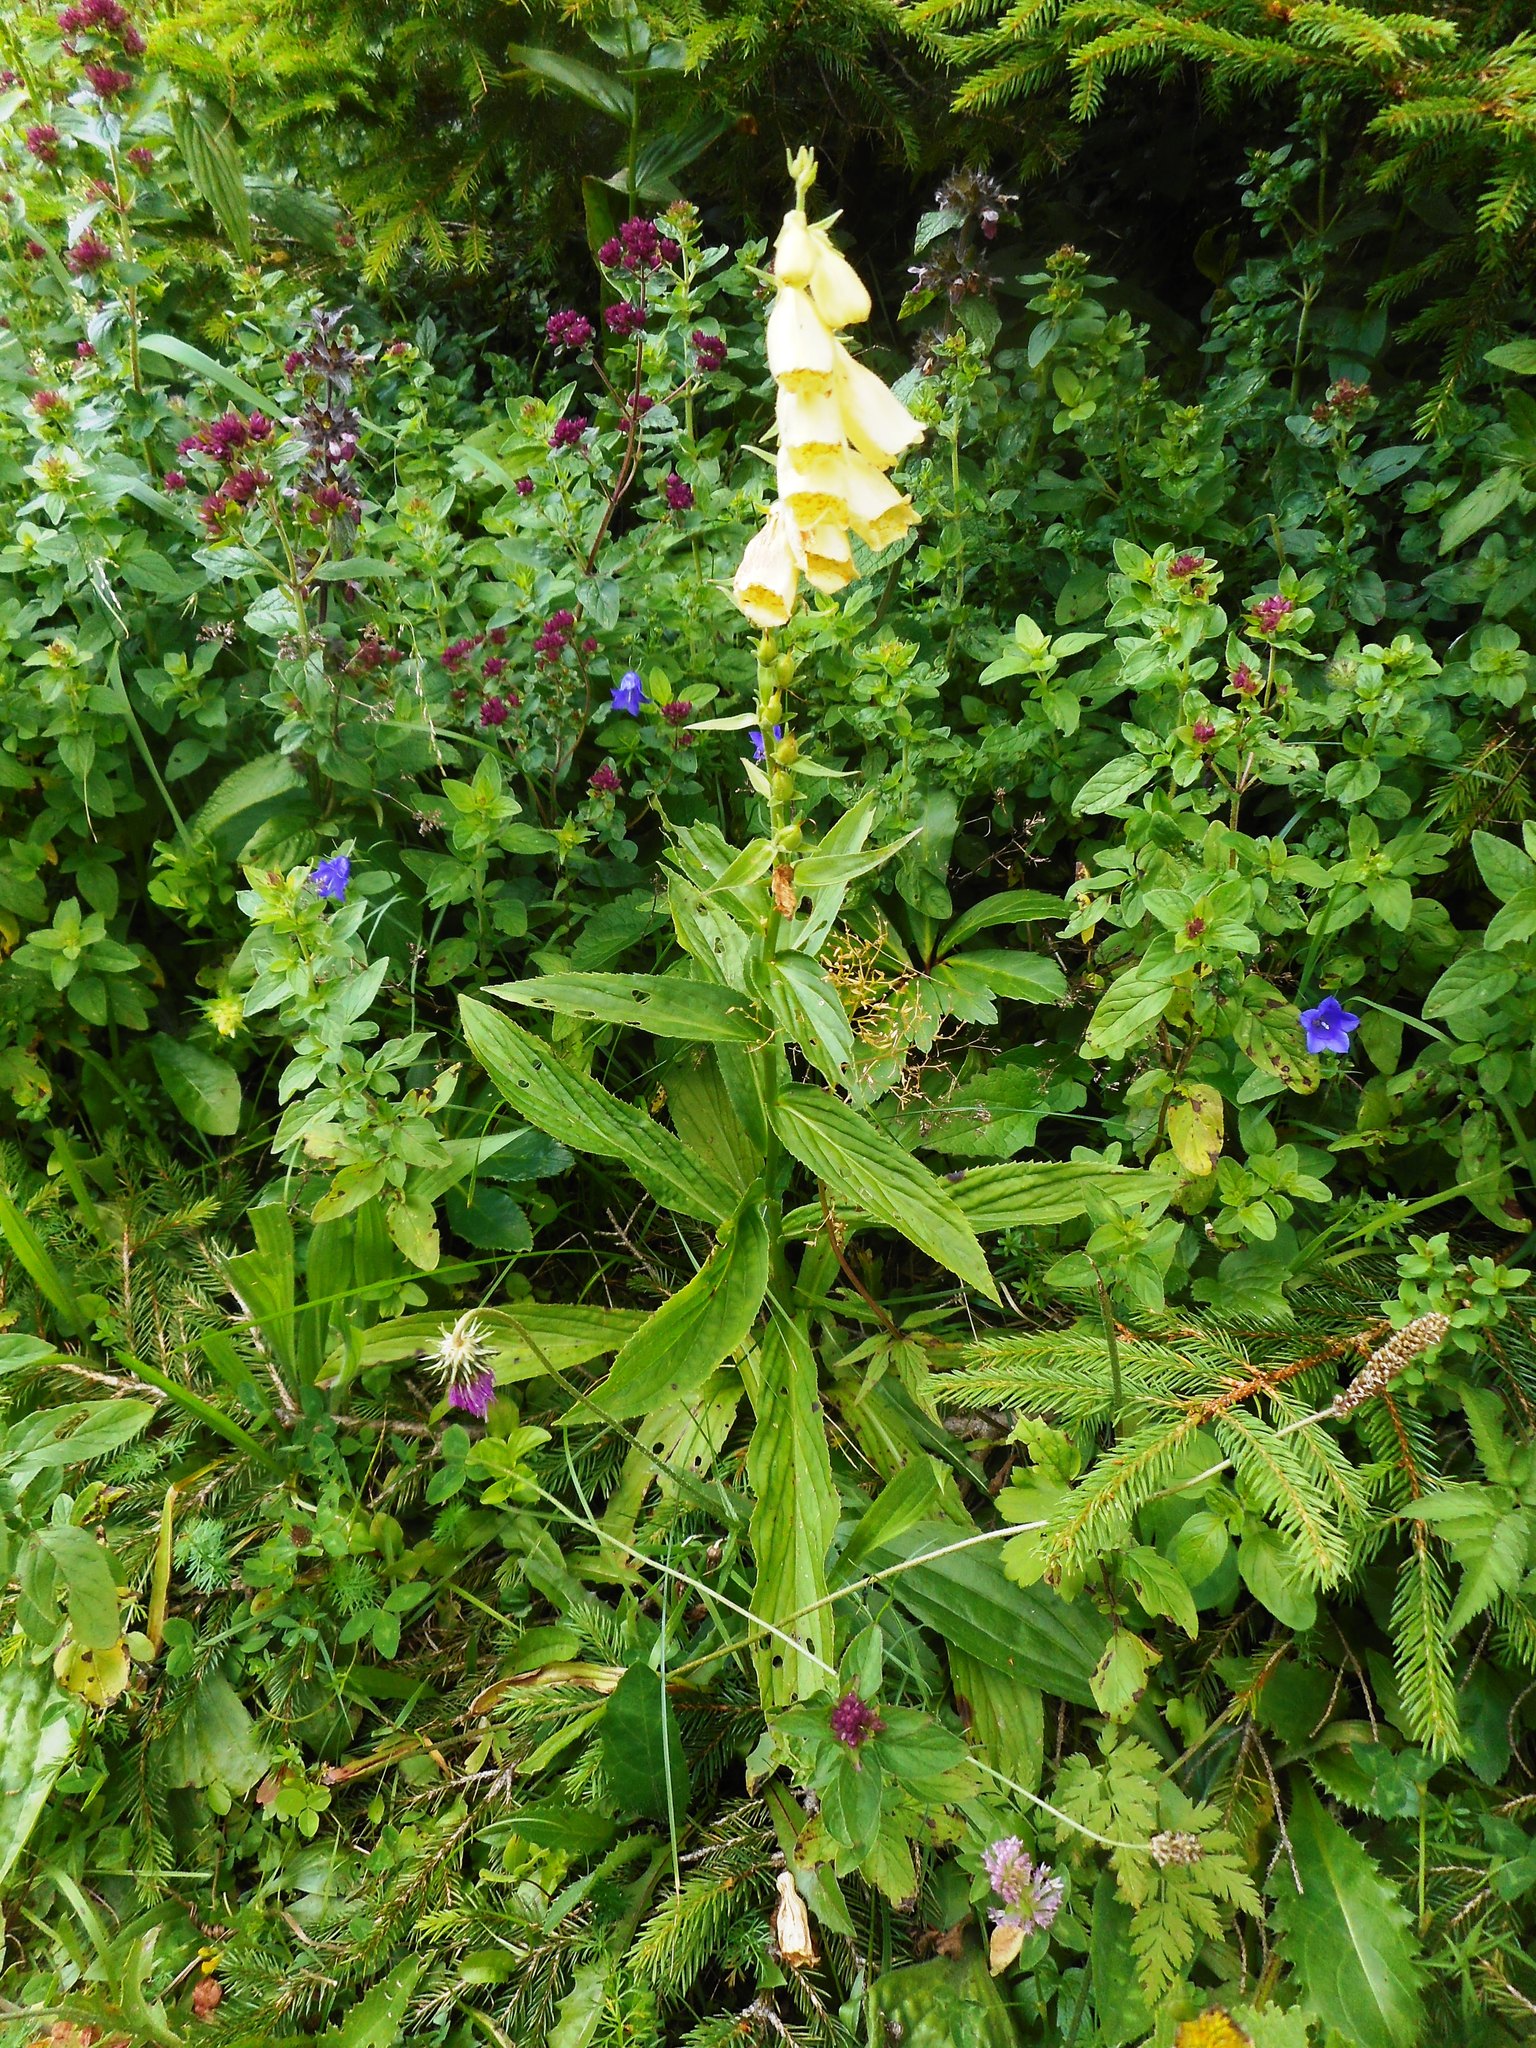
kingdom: Plantae
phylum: Tracheophyta
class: Magnoliopsida
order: Lamiales
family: Plantaginaceae
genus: Digitalis
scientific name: Digitalis grandiflora
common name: Yellow foxglove
